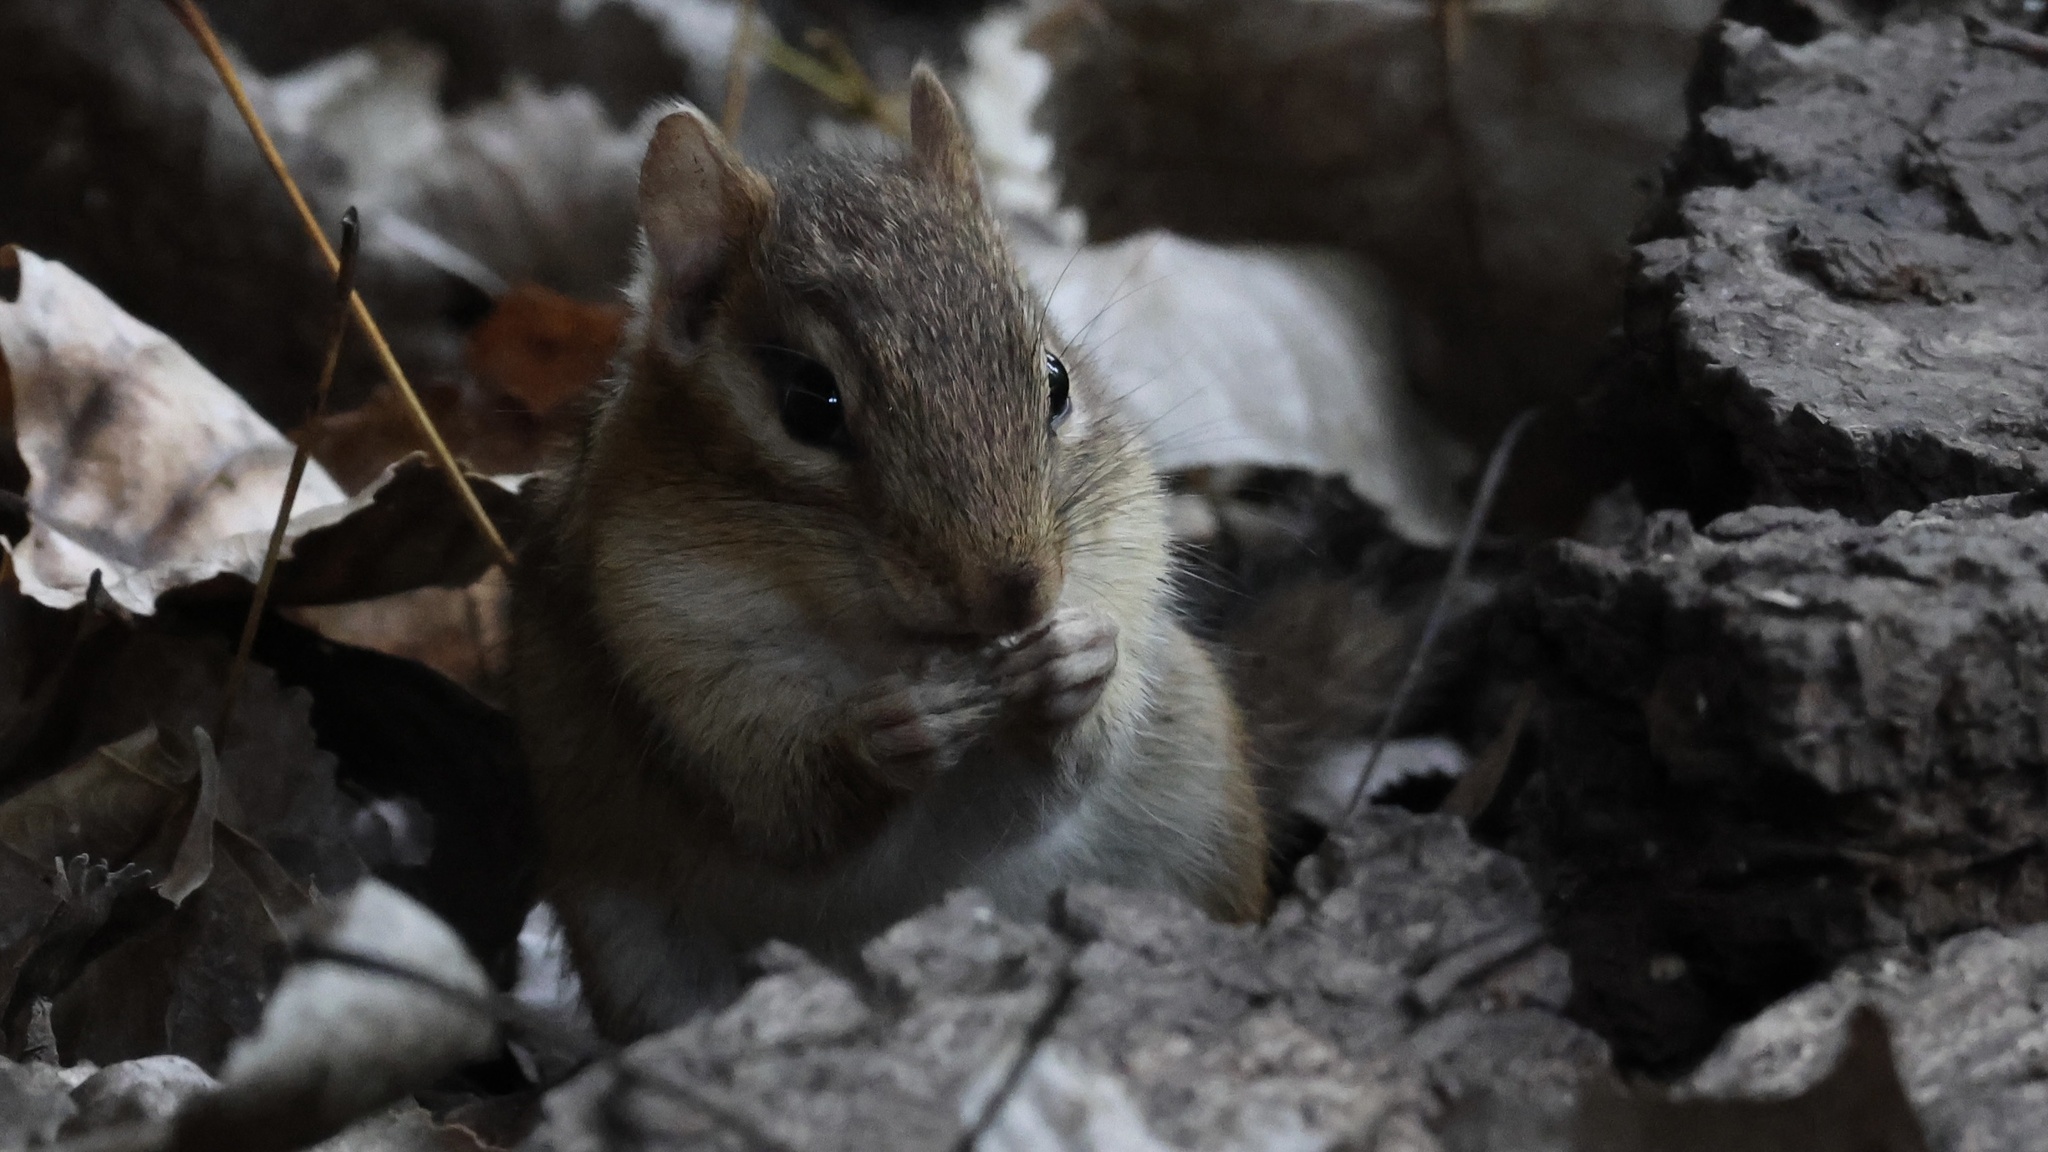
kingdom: Animalia
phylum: Chordata
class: Mammalia
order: Rodentia
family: Sciuridae
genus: Tamias
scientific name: Tamias striatus
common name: Eastern chipmunk
